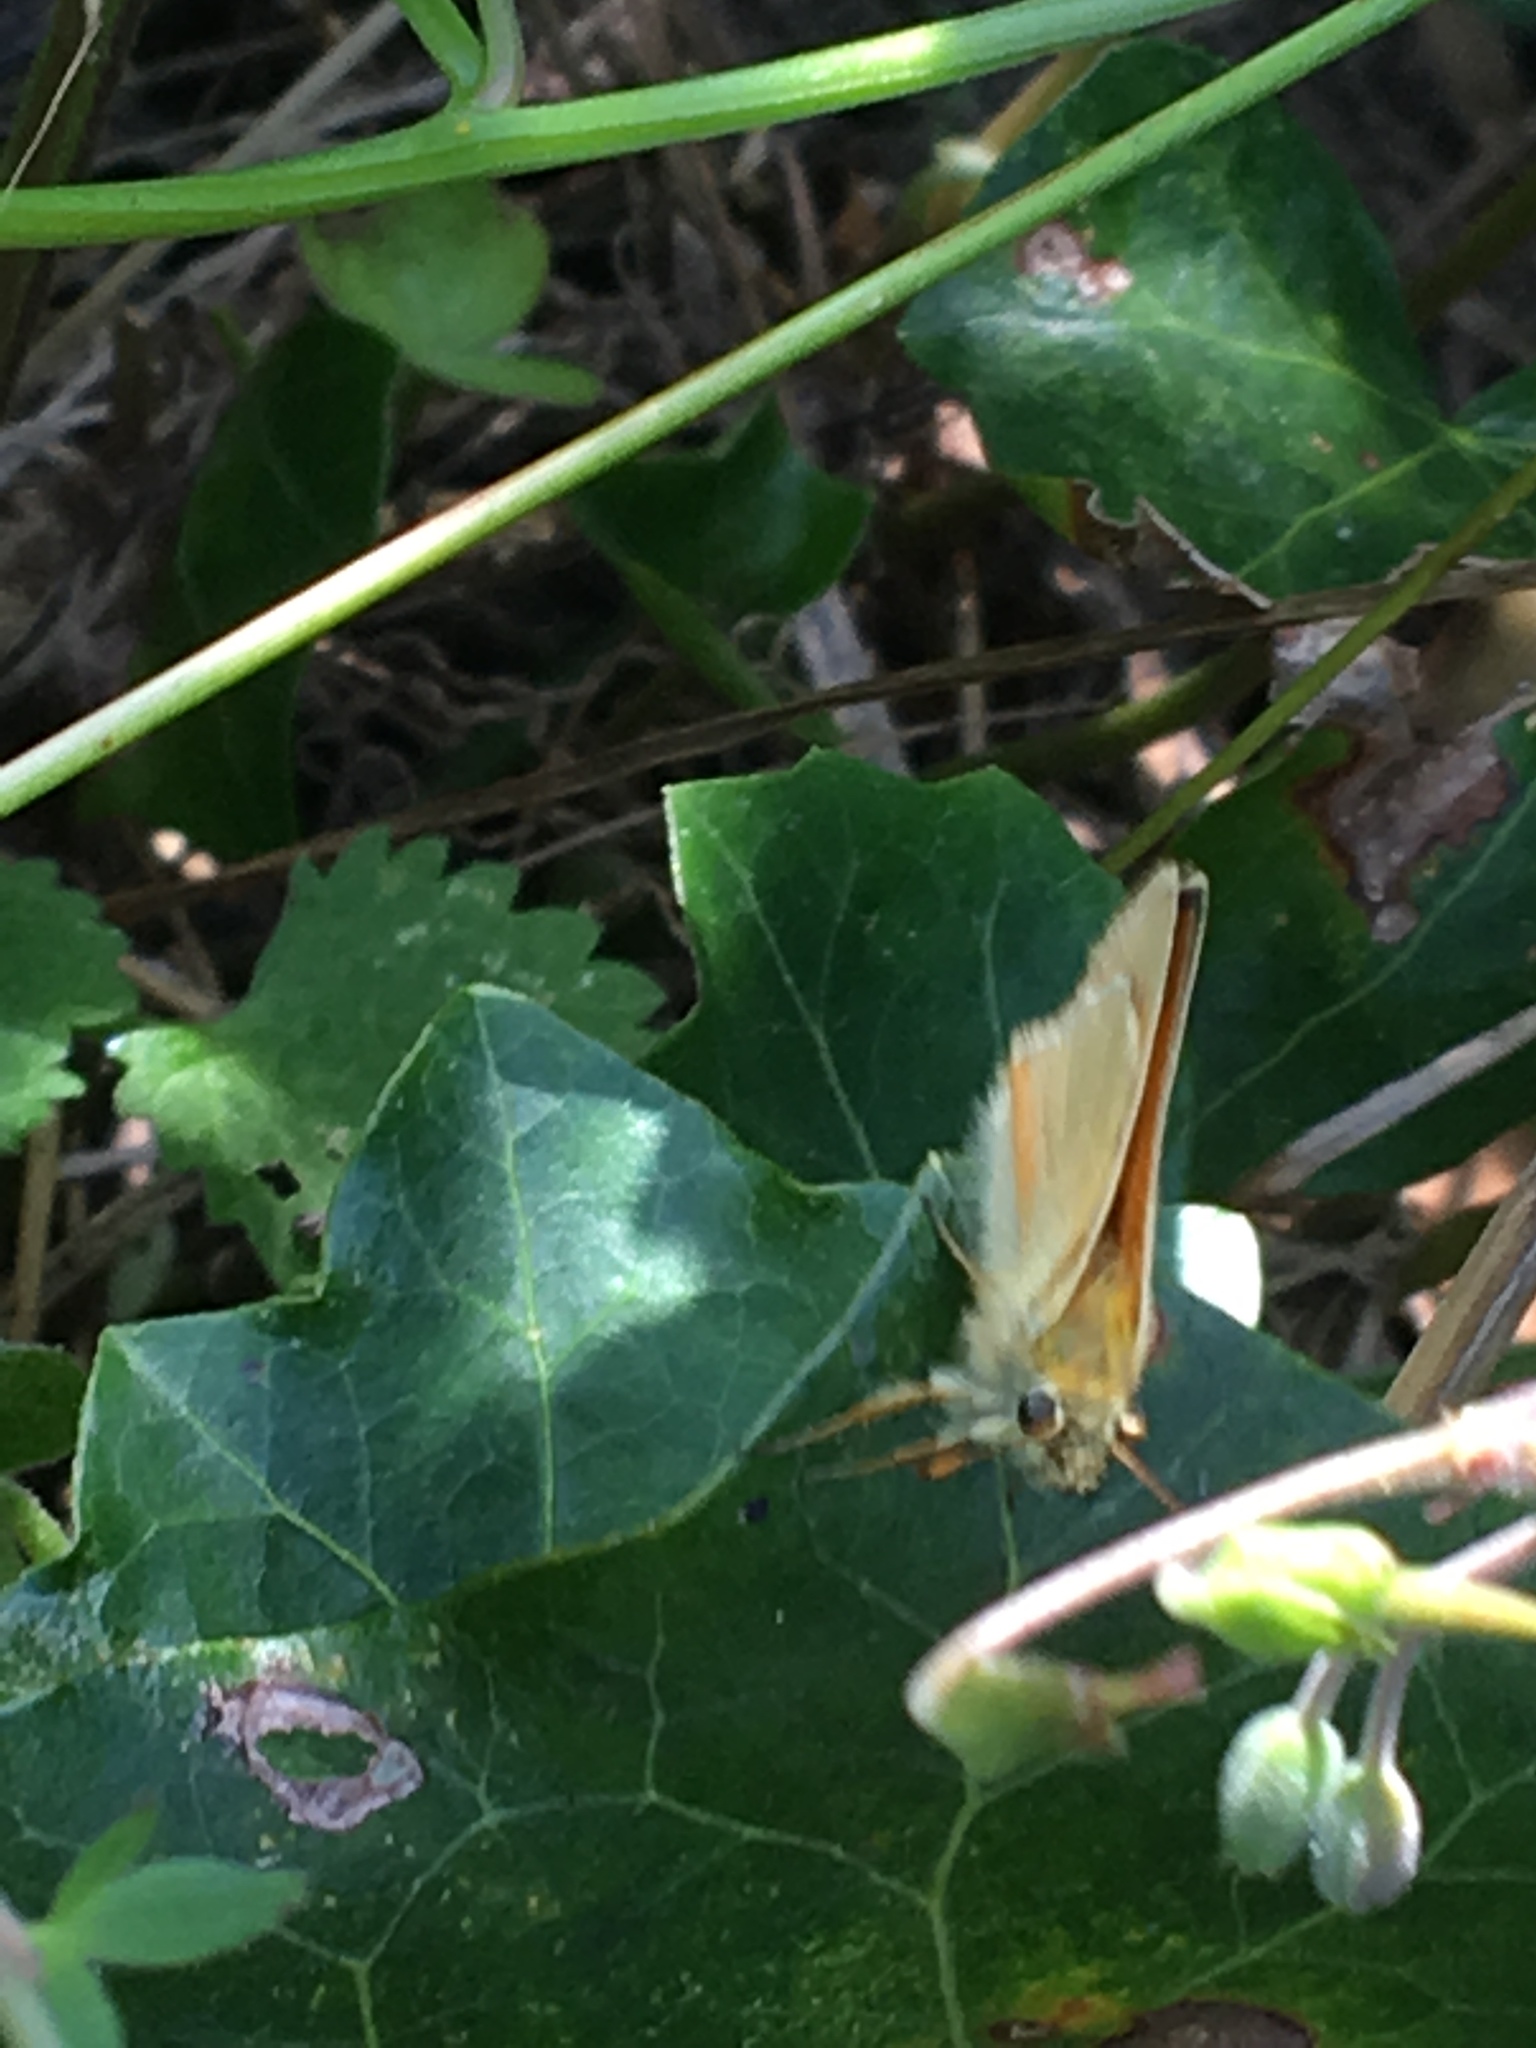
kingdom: Animalia
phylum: Arthropoda
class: Insecta
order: Lepidoptera
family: Hesperiidae
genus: Thymelicus
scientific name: Thymelicus sylvestris
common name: Small skipper
